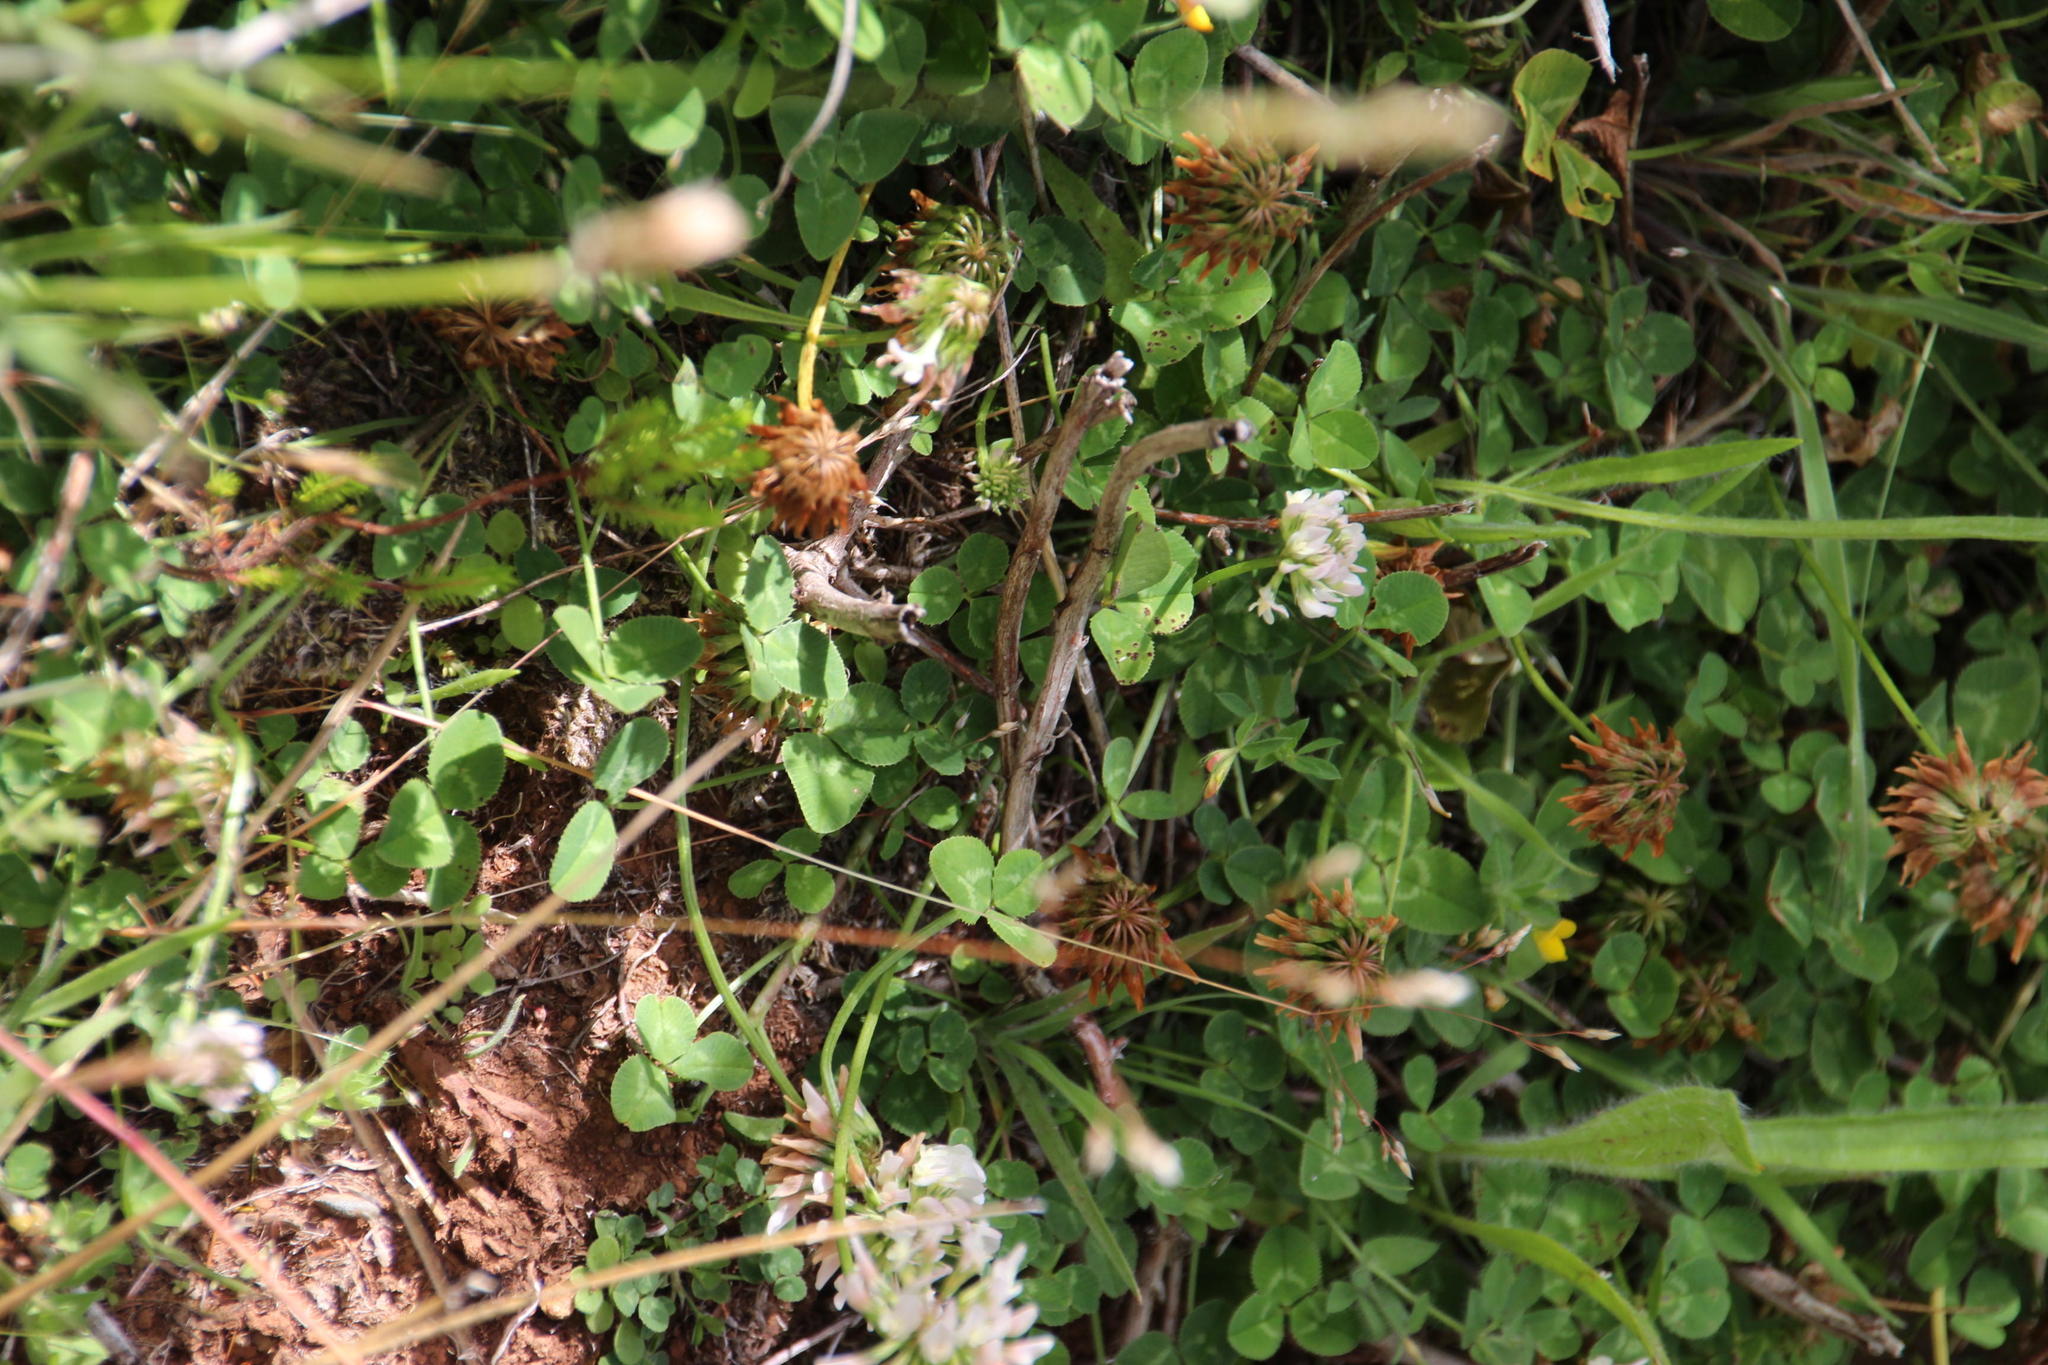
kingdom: Plantae
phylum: Tracheophyta
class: Magnoliopsida
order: Fabales
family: Fabaceae
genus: Trifolium
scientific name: Trifolium repens
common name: White clover
